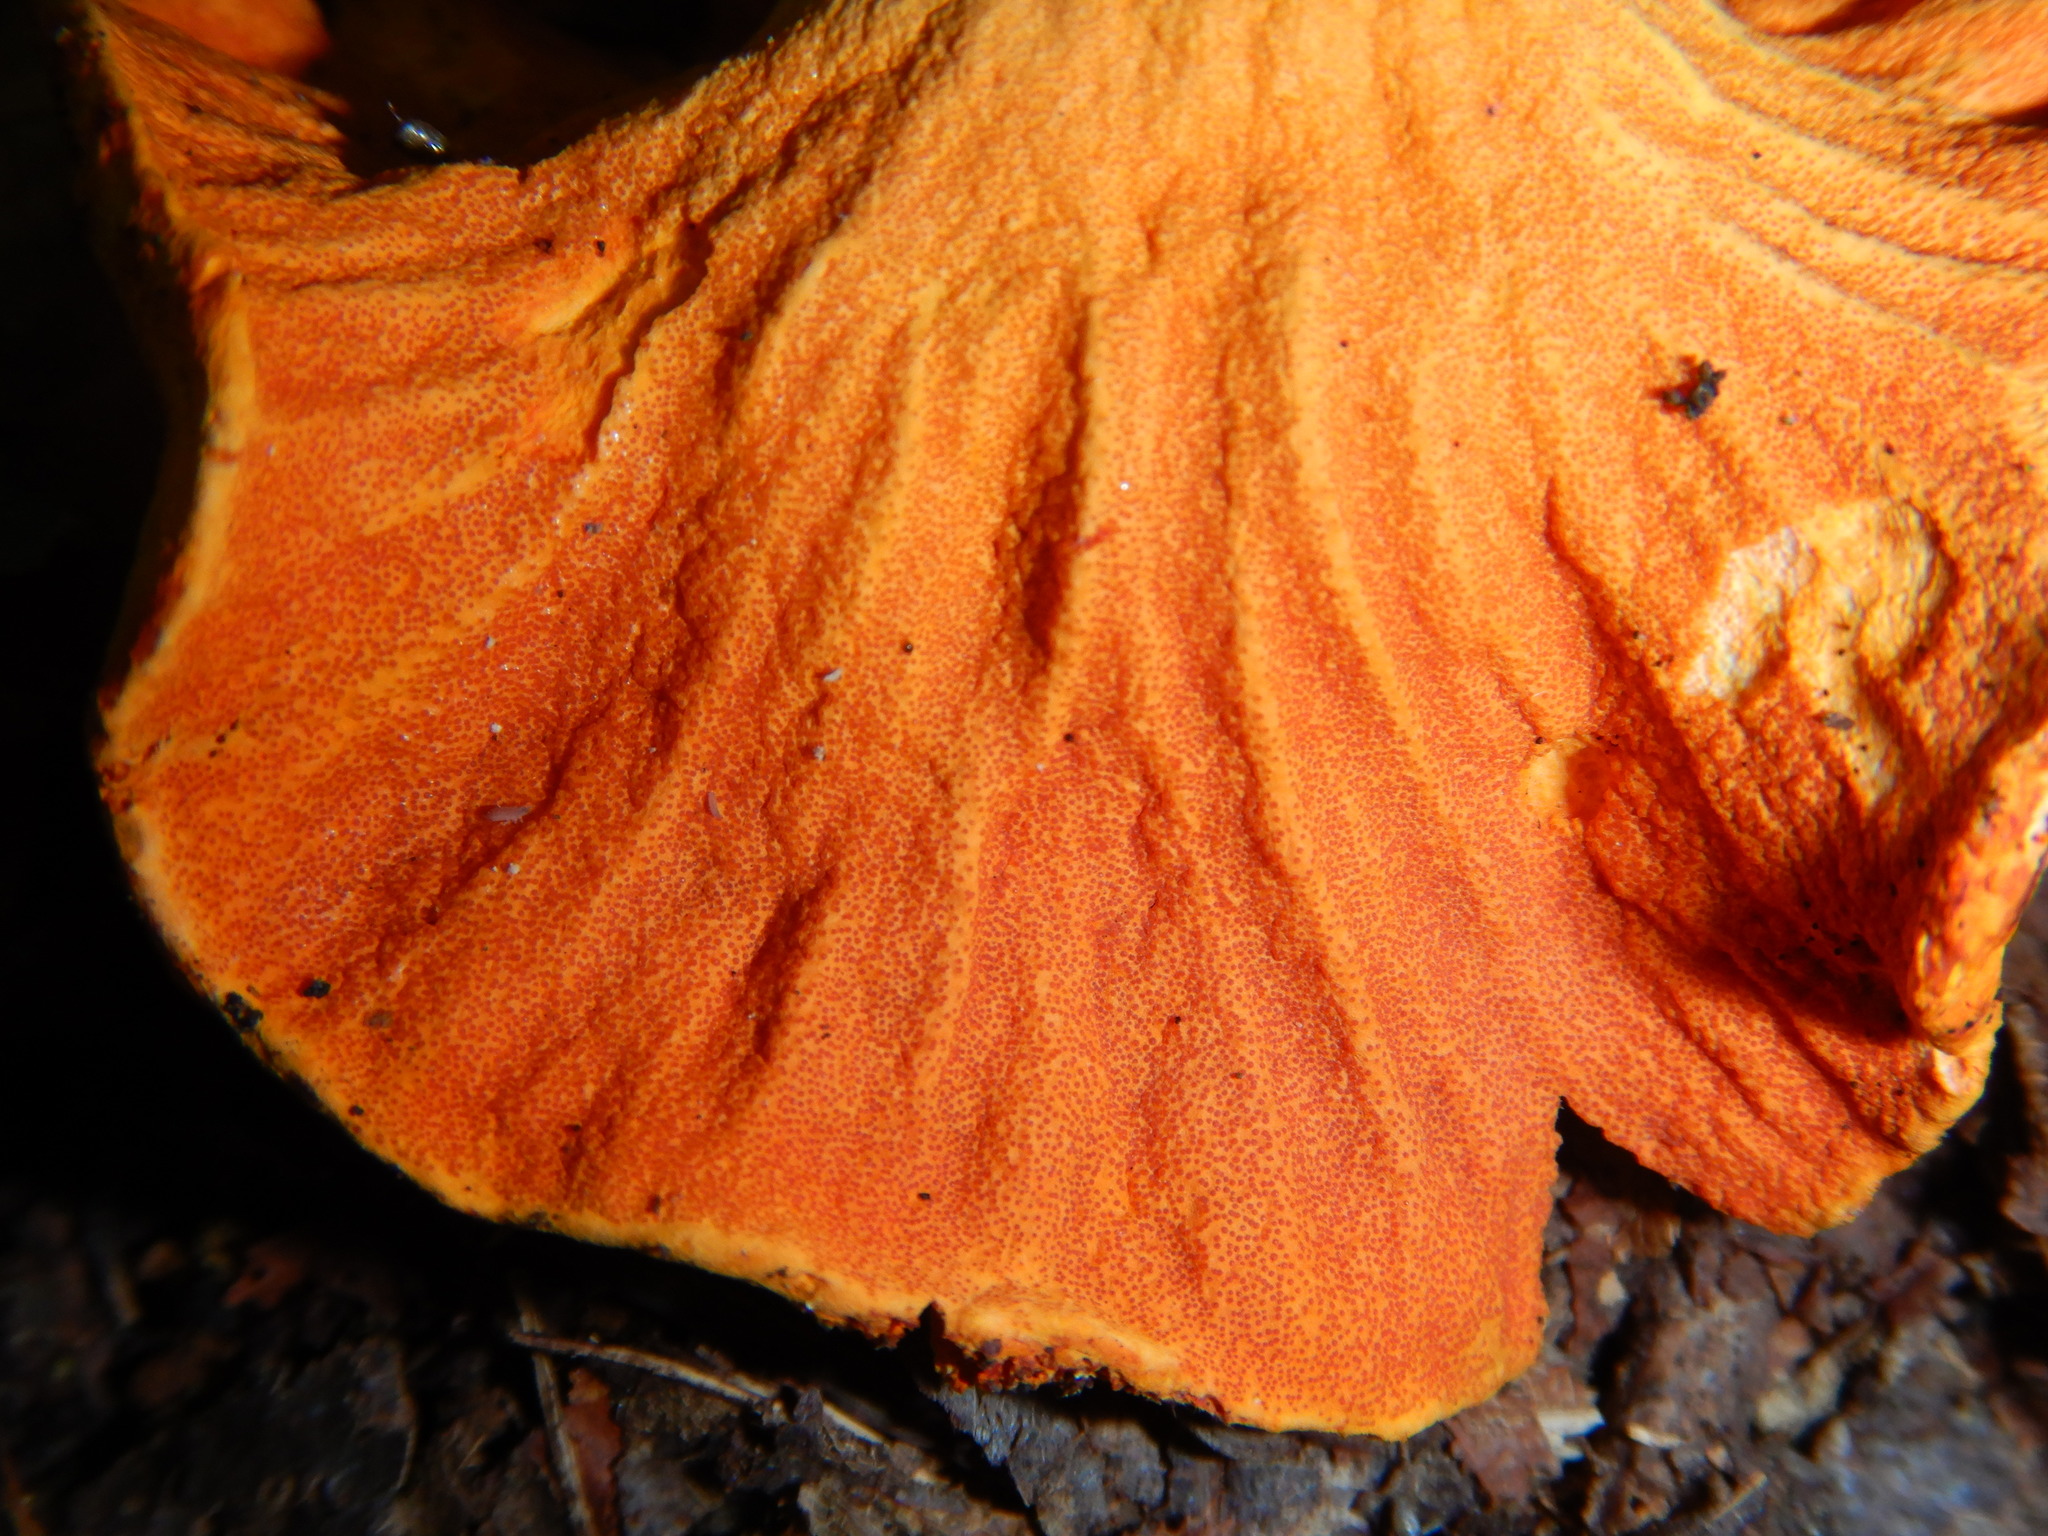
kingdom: Fungi
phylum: Ascomycota
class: Sordariomycetes
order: Hypocreales
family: Hypocreaceae
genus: Hypomyces
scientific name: Hypomyces lactifluorum
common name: Lobster mushroom
